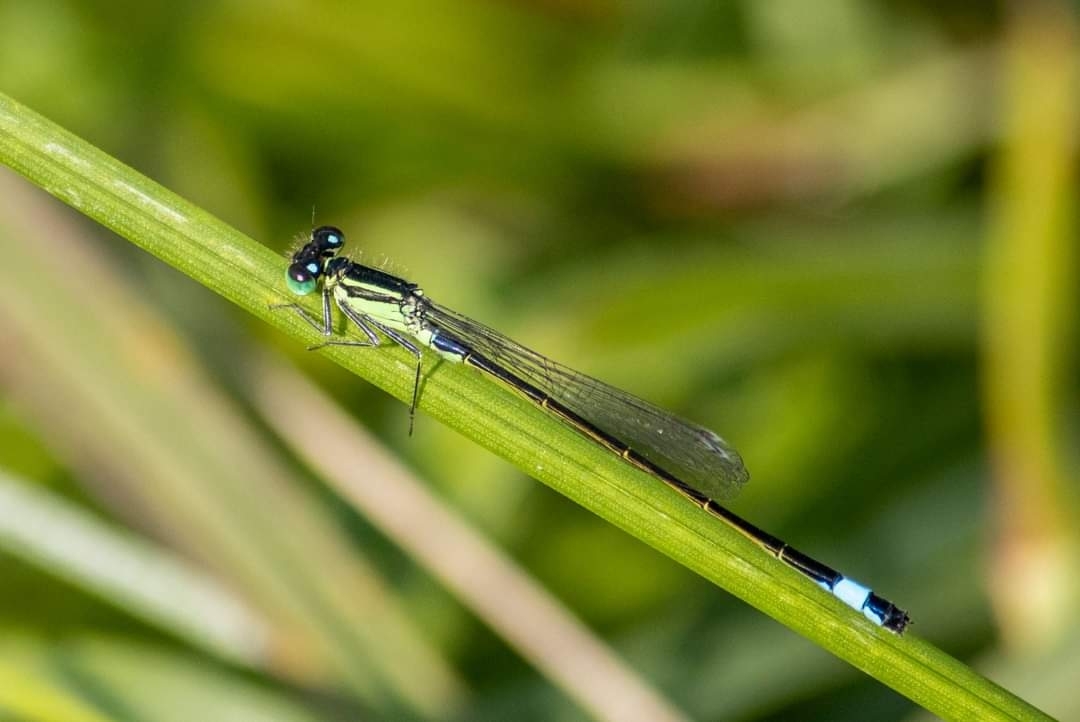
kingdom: Animalia
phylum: Arthropoda
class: Insecta
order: Odonata
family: Coenagrionidae
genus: Ischnura
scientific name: Ischnura elegans
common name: Blue-tailed damselfly
